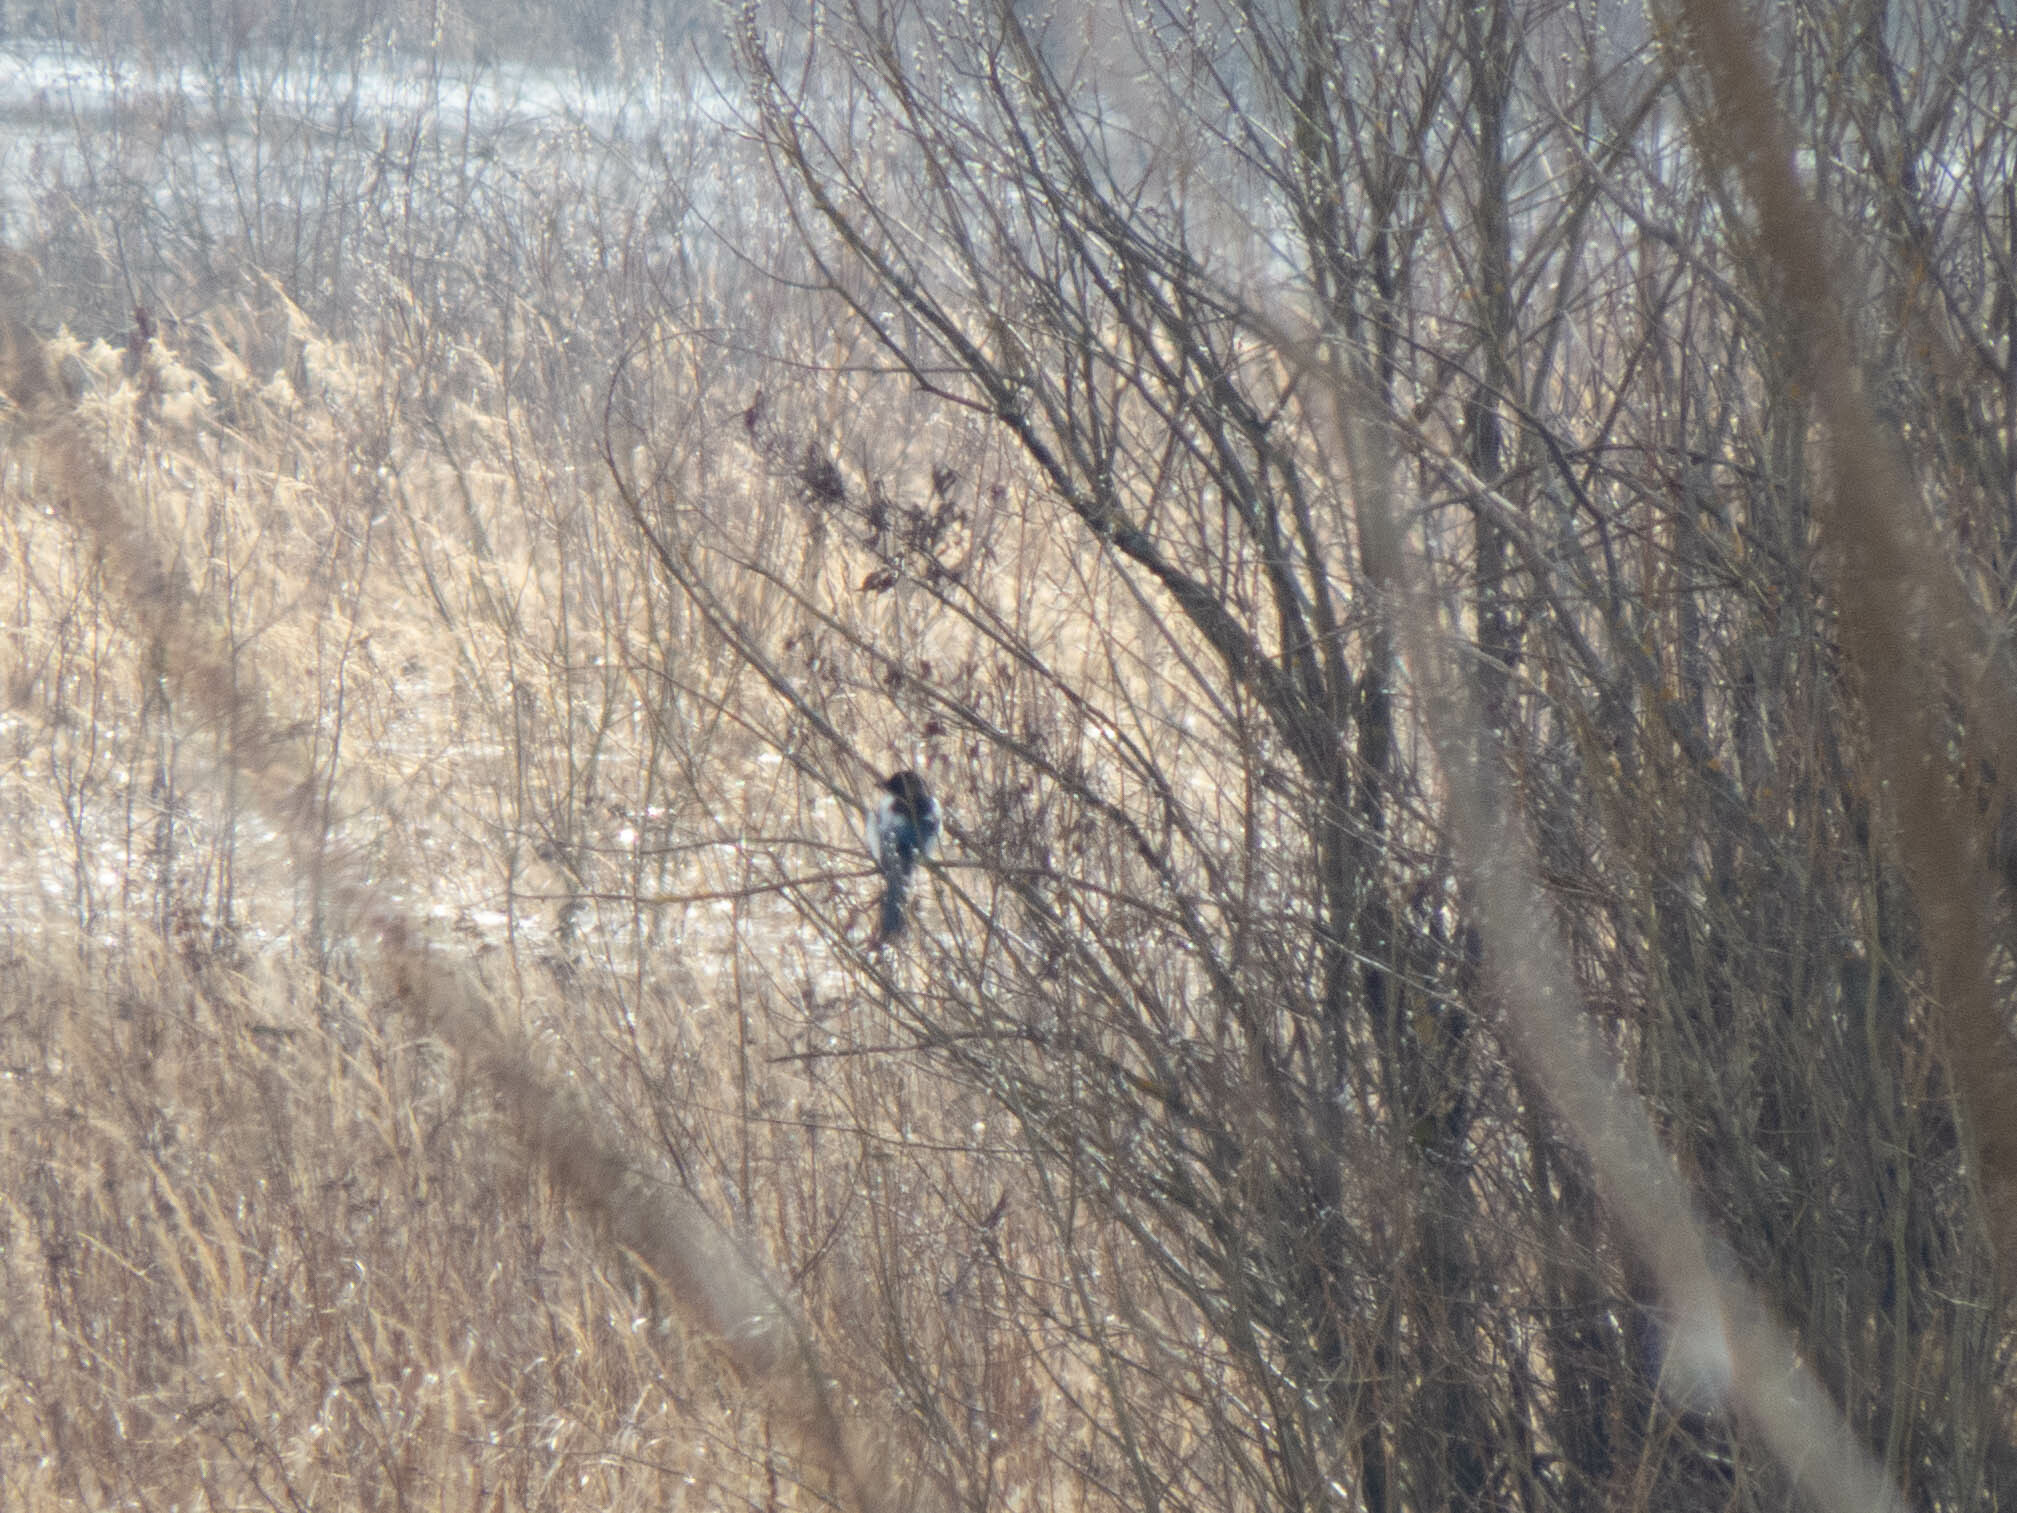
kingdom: Animalia
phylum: Chordata
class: Aves
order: Passeriformes
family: Corvidae
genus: Pica
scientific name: Pica pica
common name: Eurasian magpie
